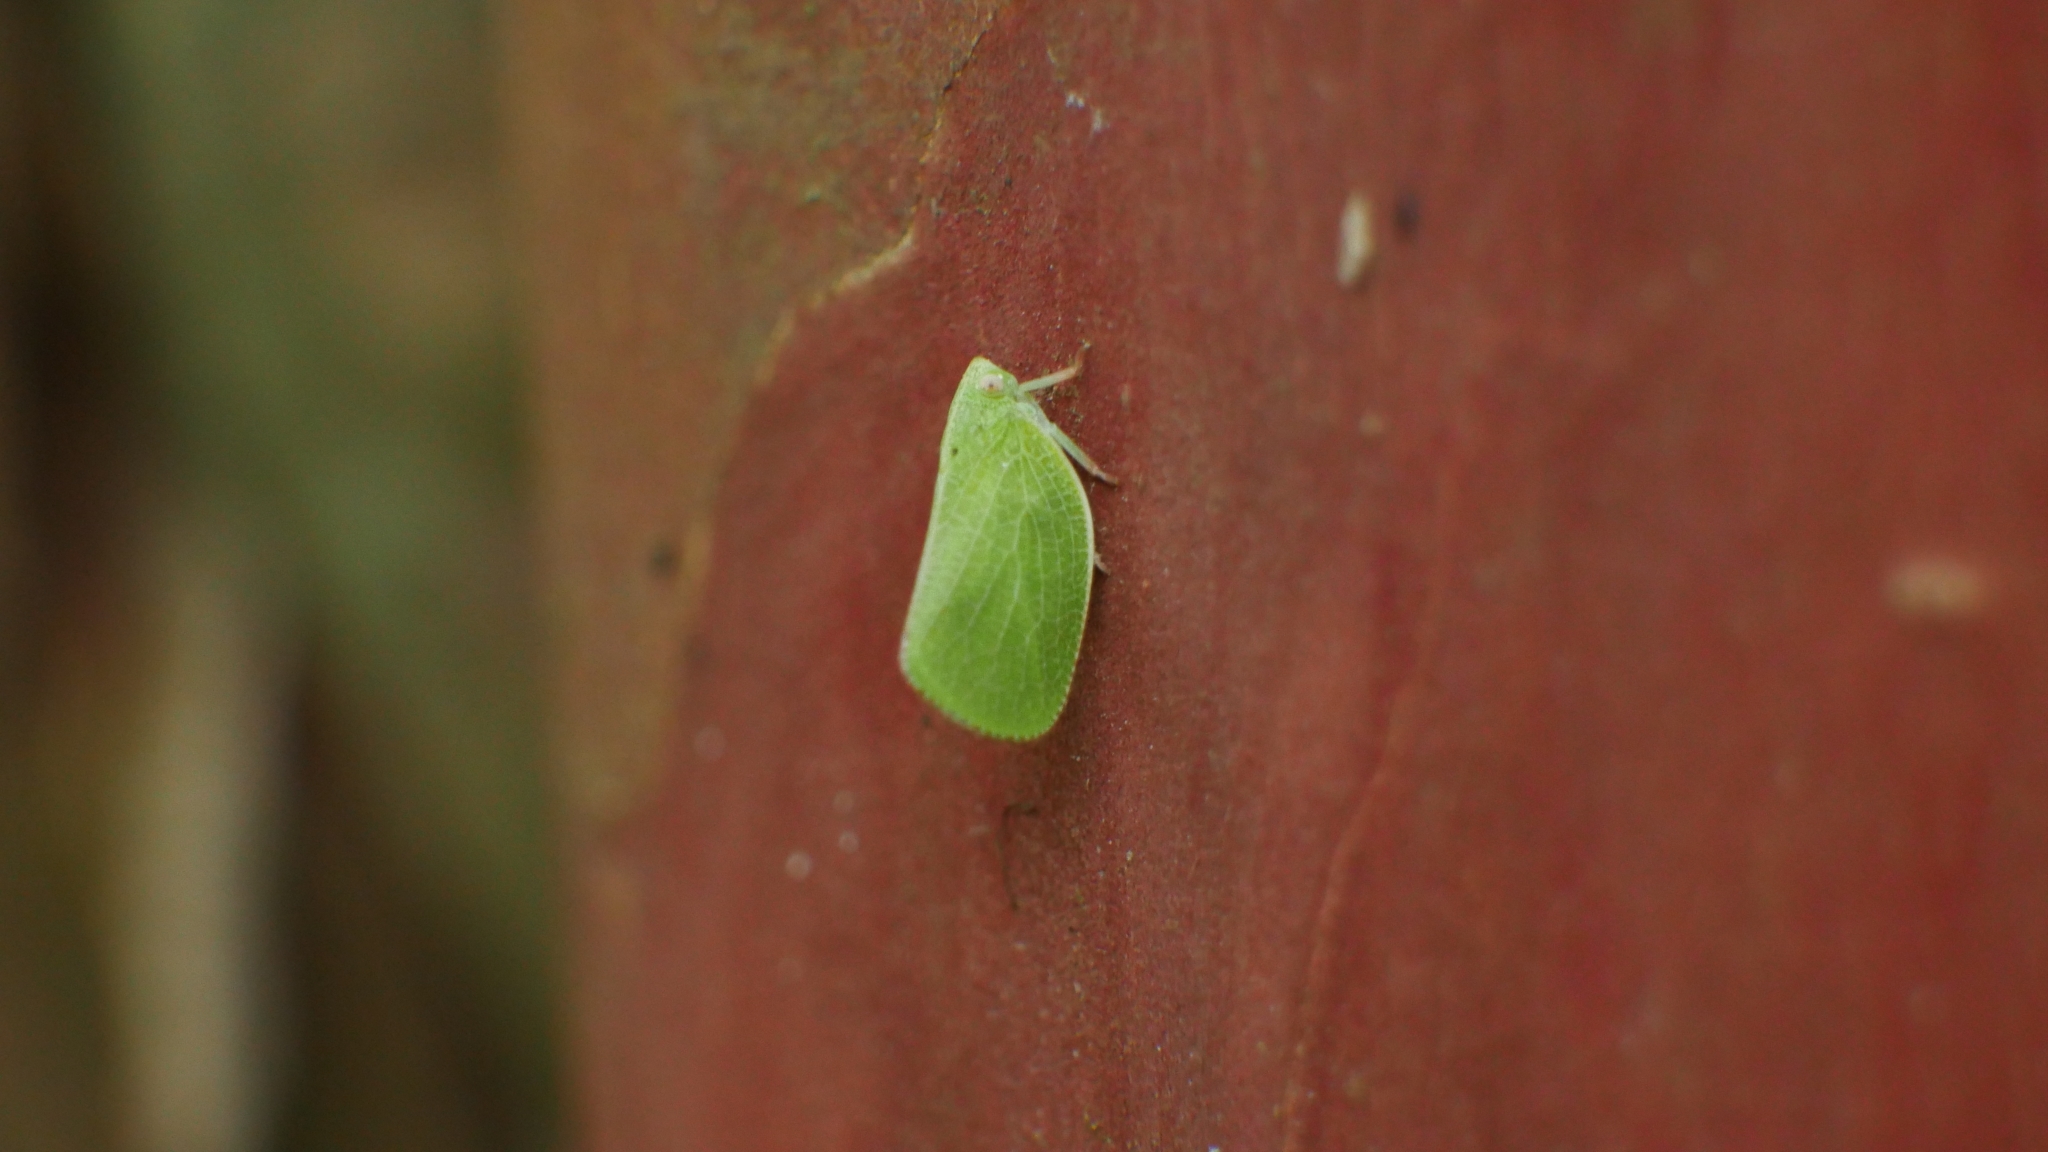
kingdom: Animalia
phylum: Arthropoda
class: Insecta
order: Hemiptera
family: Acanaloniidae
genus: Acanalonia
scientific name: Acanalonia conica
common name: Green cone-headed planthopper
